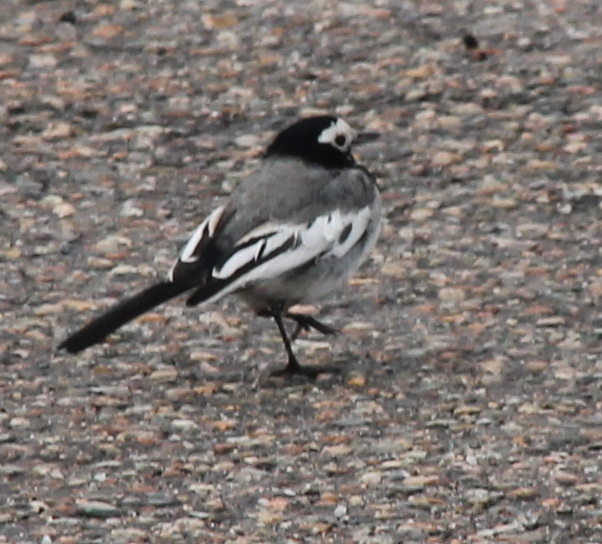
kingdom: Animalia
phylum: Chordata
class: Aves
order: Passeriformes
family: Motacillidae
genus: Motacilla
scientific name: Motacilla alba
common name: White wagtail
